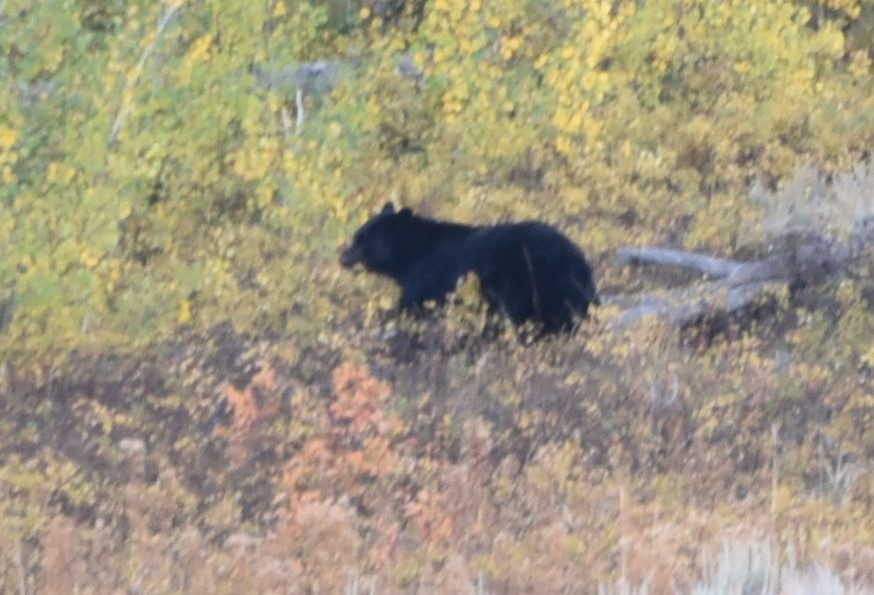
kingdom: Animalia
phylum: Chordata
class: Mammalia
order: Carnivora
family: Ursidae
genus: Ursus
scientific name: Ursus americanus
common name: American black bear
